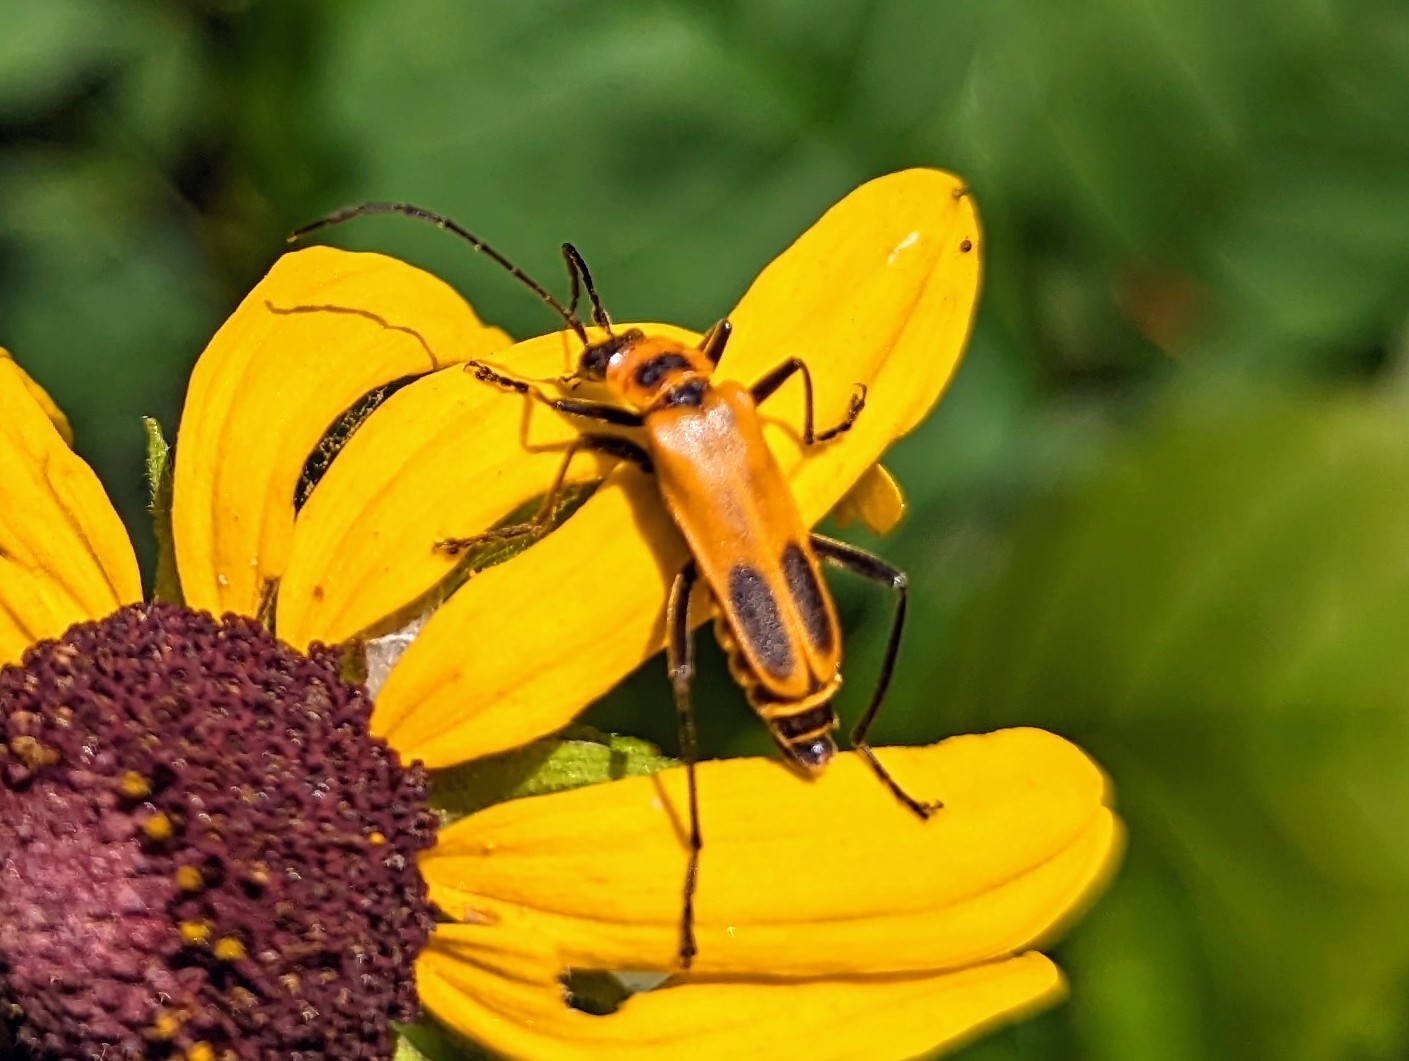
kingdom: Animalia
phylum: Arthropoda
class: Insecta
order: Coleoptera
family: Cantharidae
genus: Chauliognathus
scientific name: Chauliognathus pensylvanicus
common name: Goldenrod soldier beetle
